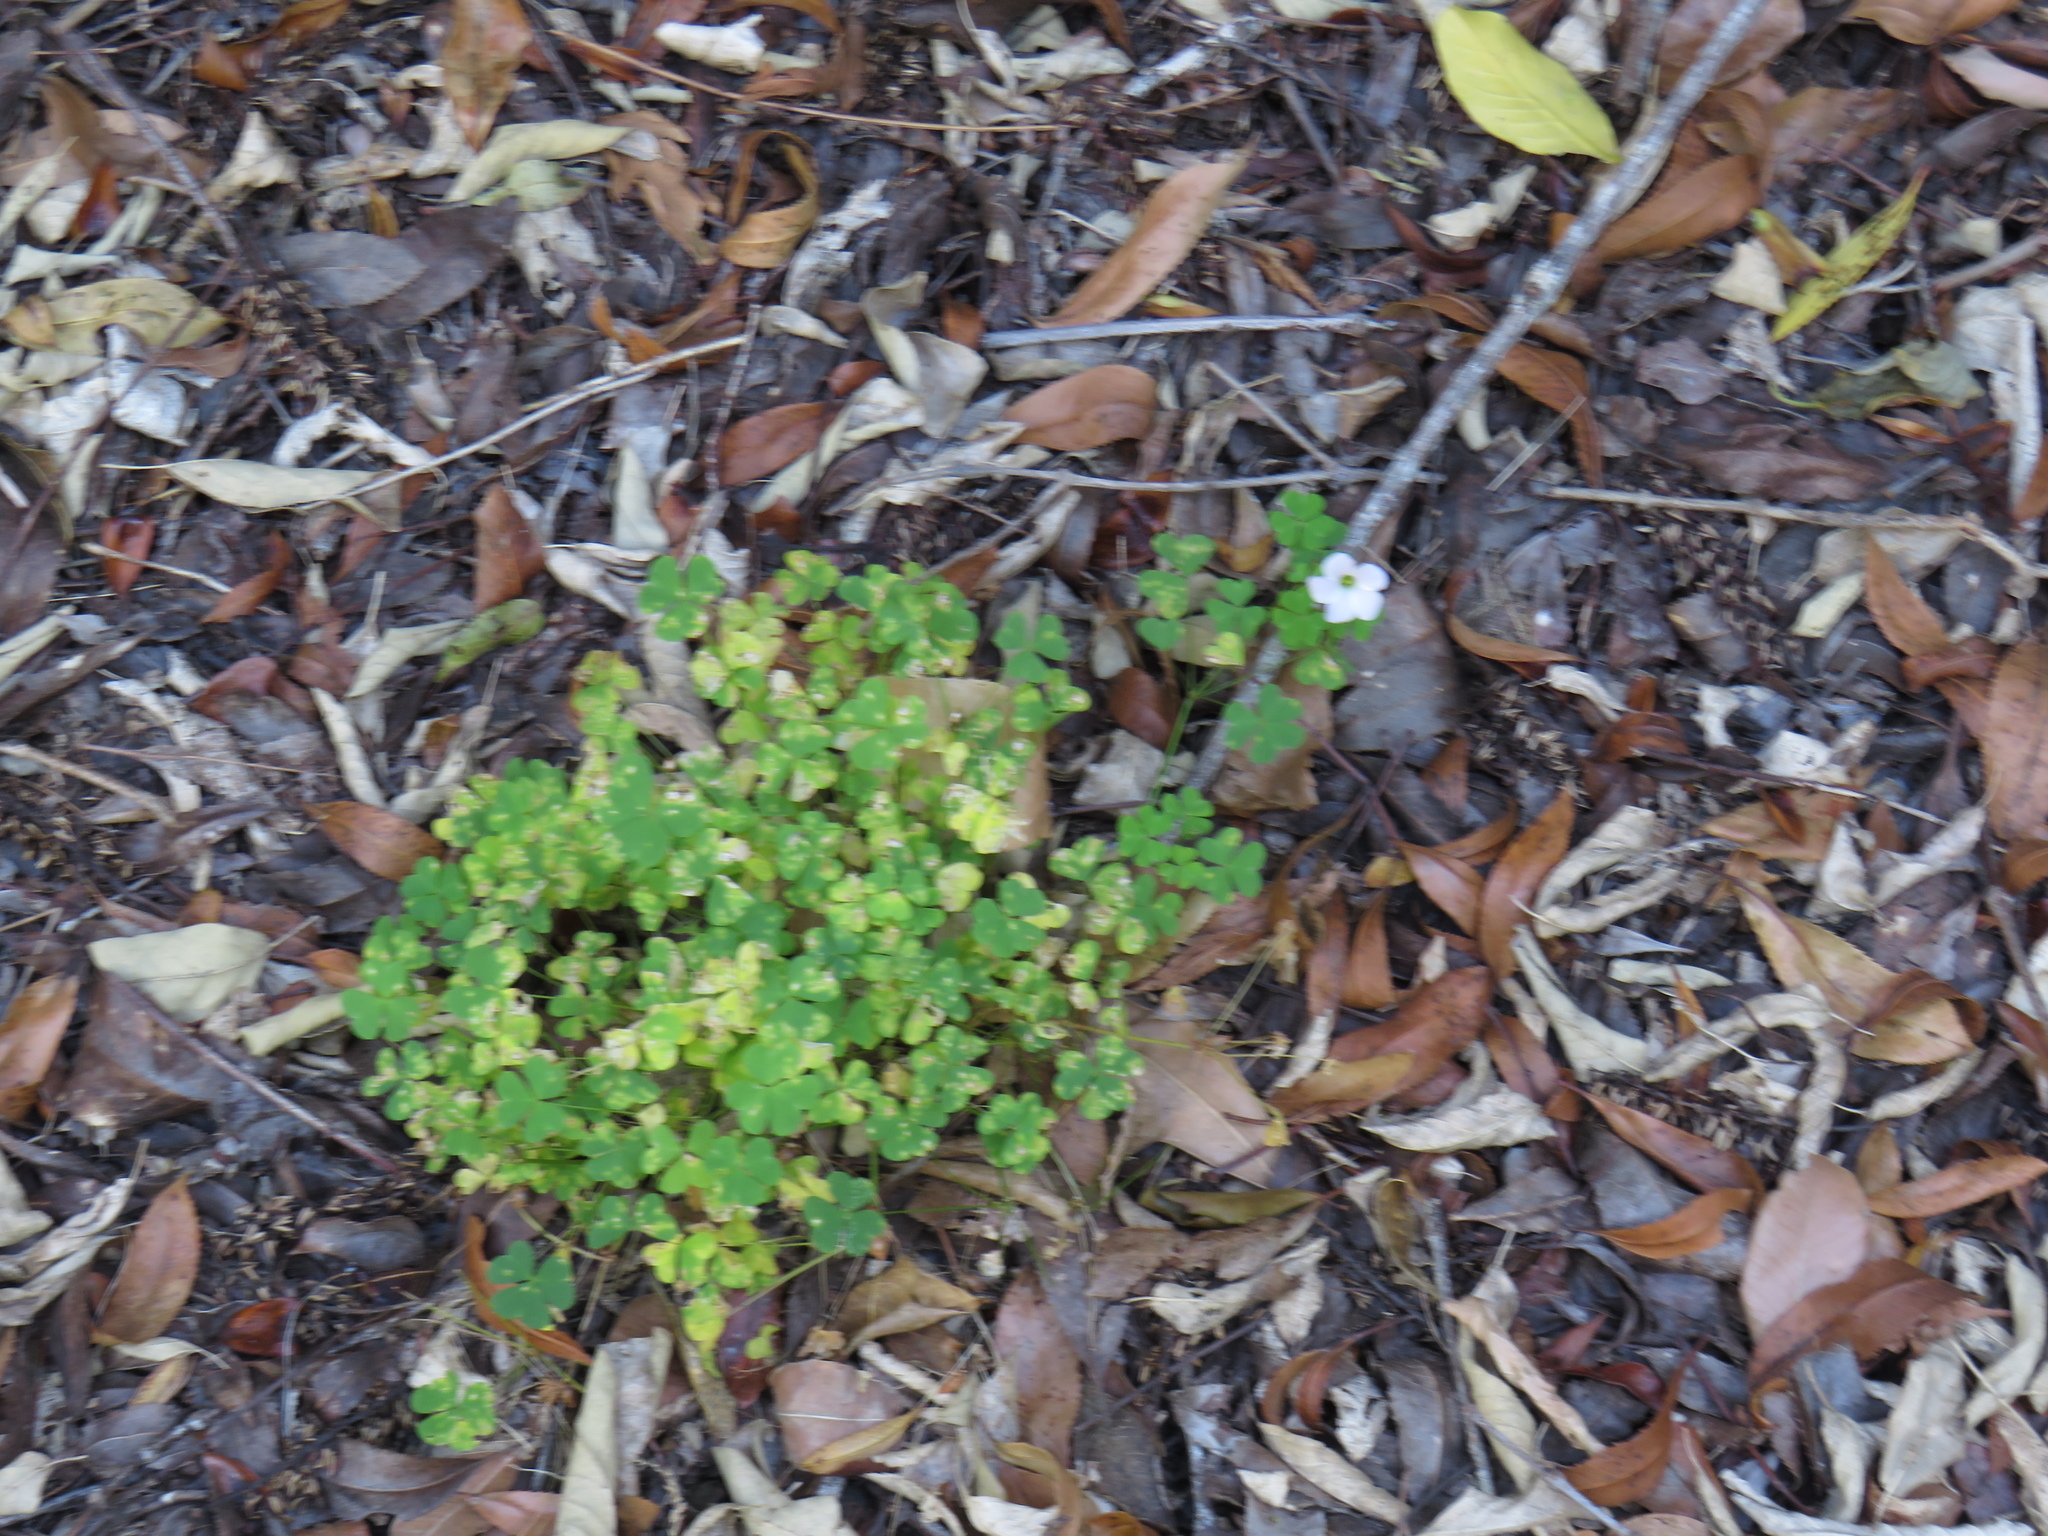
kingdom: Plantae
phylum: Tracheophyta
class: Magnoliopsida
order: Oxalidales
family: Oxalidaceae
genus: Oxalis
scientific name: Oxalis incarnata
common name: Pale pink-sorrel
